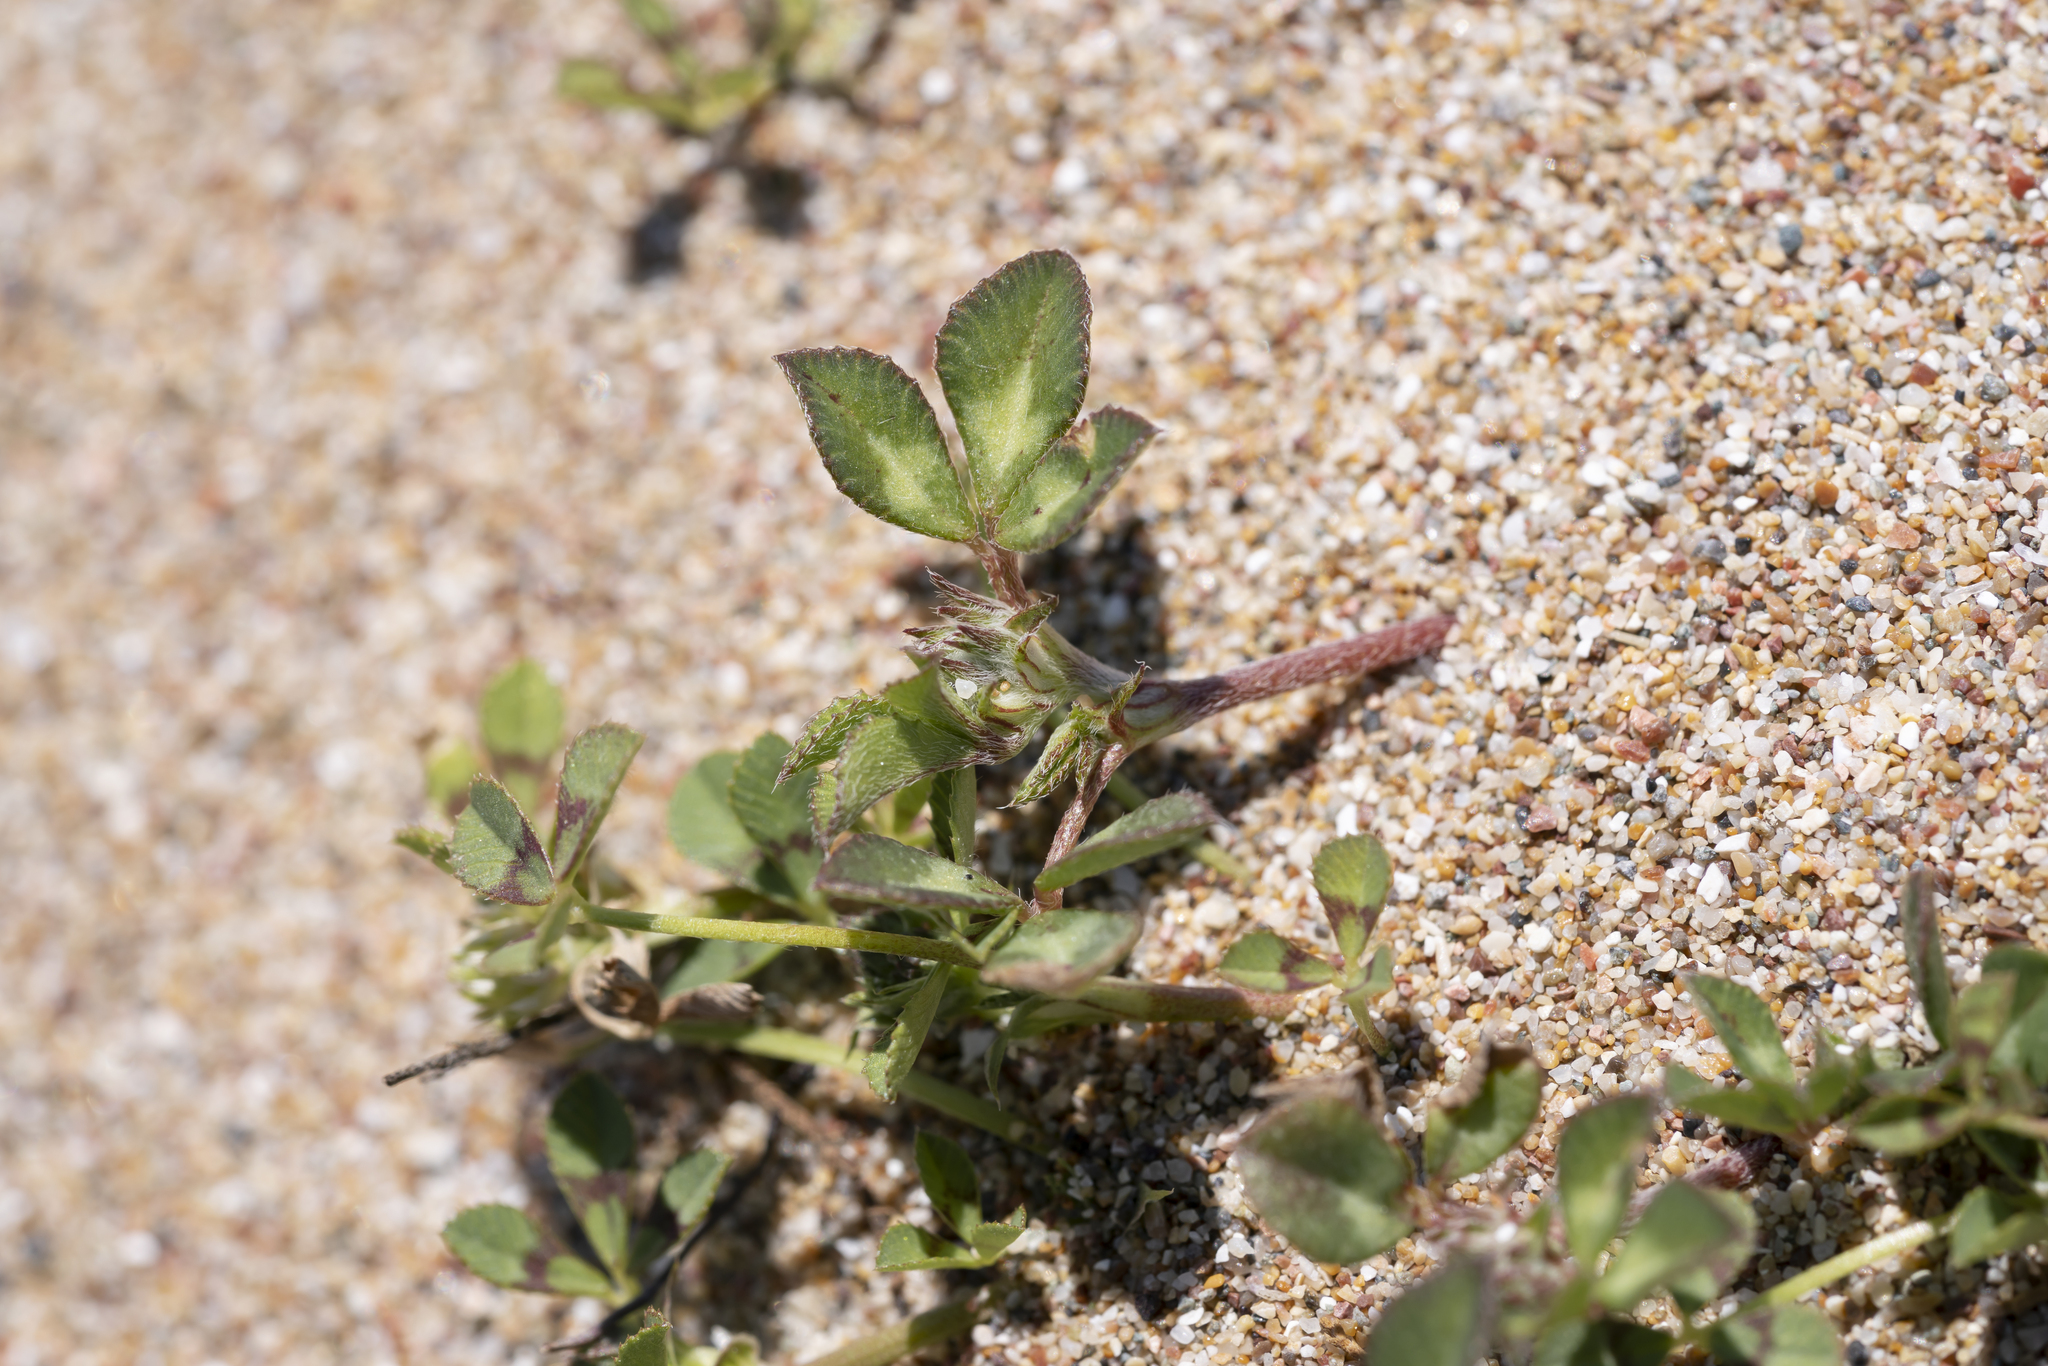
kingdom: Plantae
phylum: Tracheophyta
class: Magnoliopsida
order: Fabales
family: Fabaceae
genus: Trifolium
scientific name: Trifolium tomentosum
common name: Woolly clover
